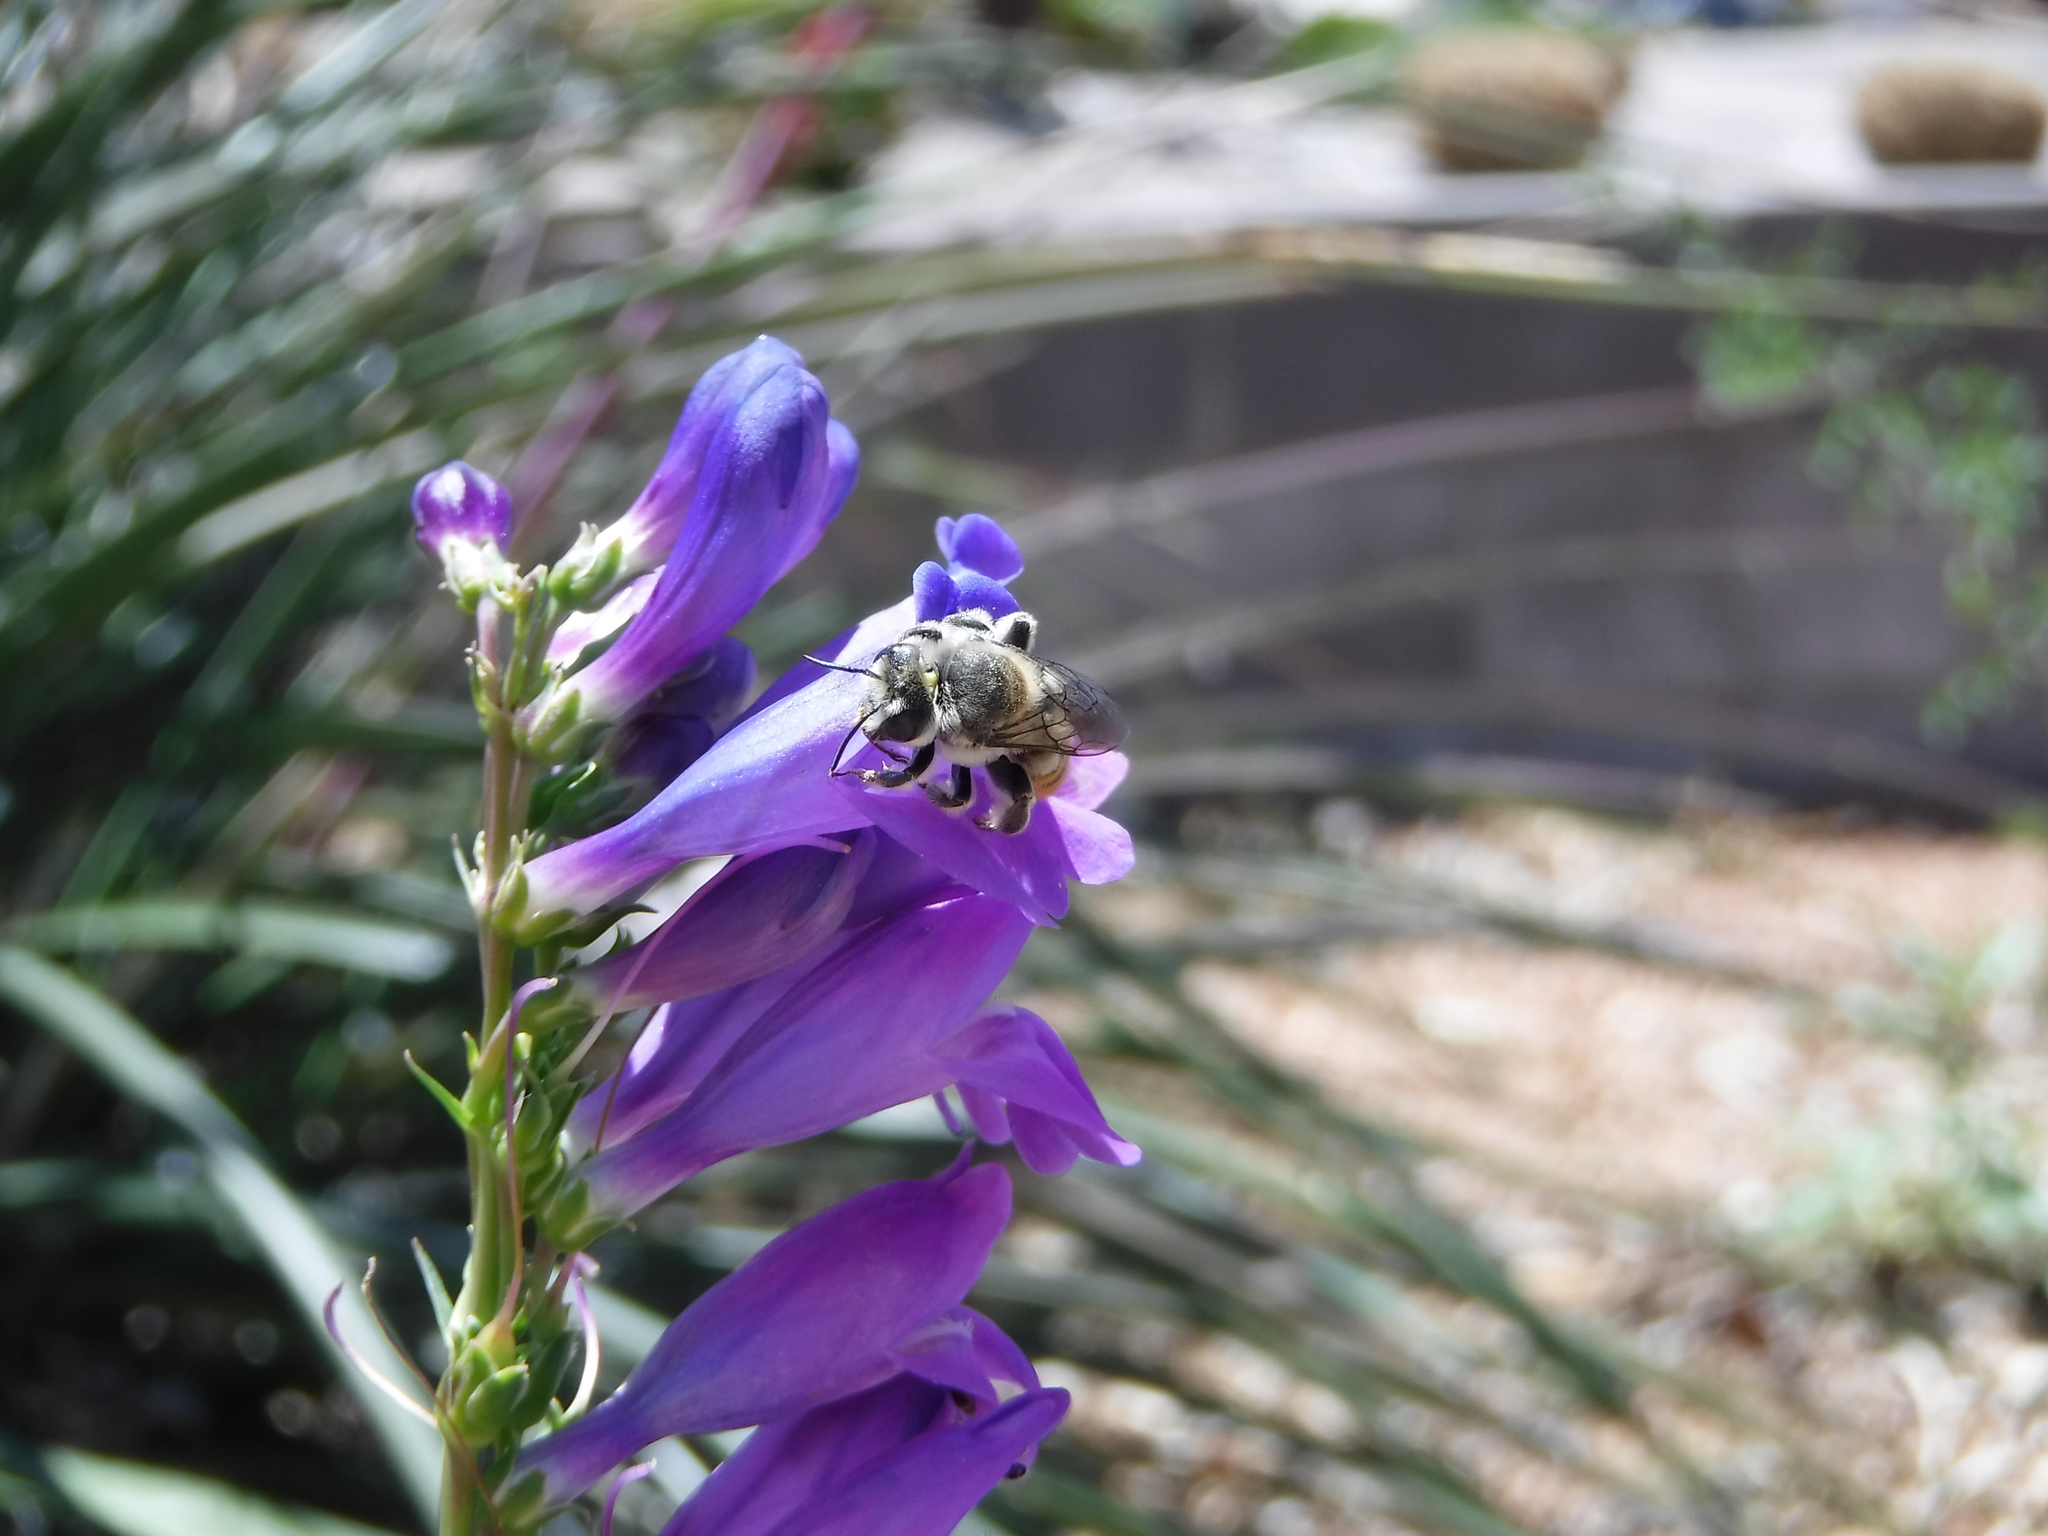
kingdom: Animalia
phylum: Arthropoda
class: Insecta
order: Hymenoptera
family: Megachilidae
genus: Lithurgopsis
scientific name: Lithurgopsis apicalis
